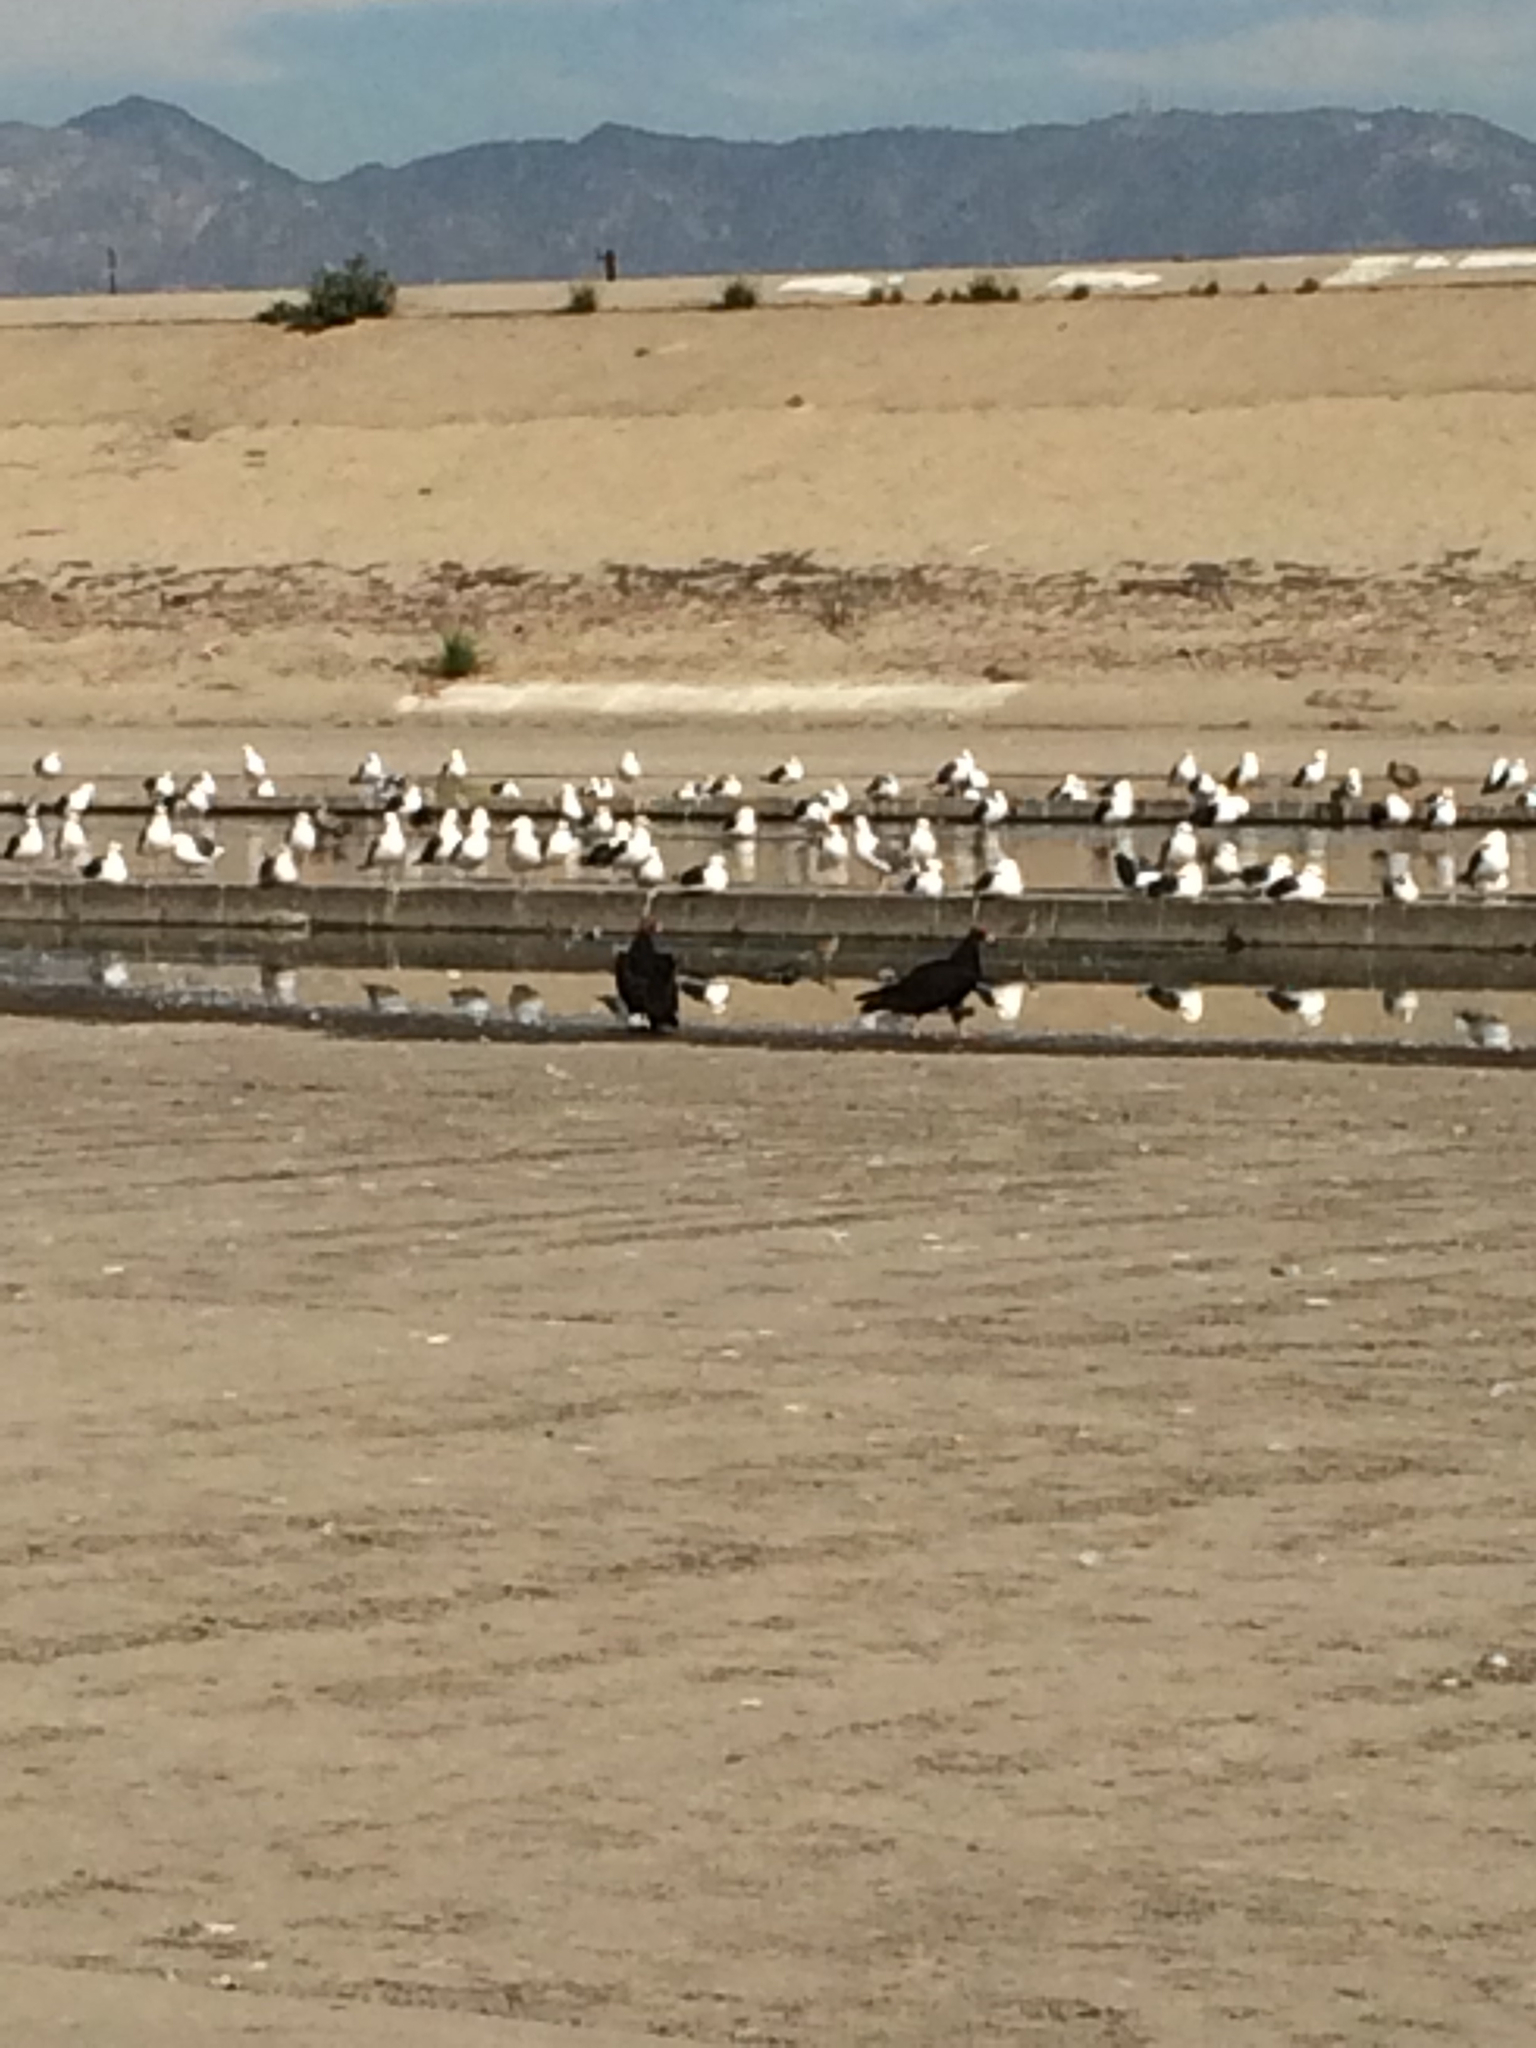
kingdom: Animalia
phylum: Chordata
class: Aves
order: Accipitriformes
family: Cathartidae
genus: Cathartes
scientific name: Cathartes aura
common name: Turkey vulture
